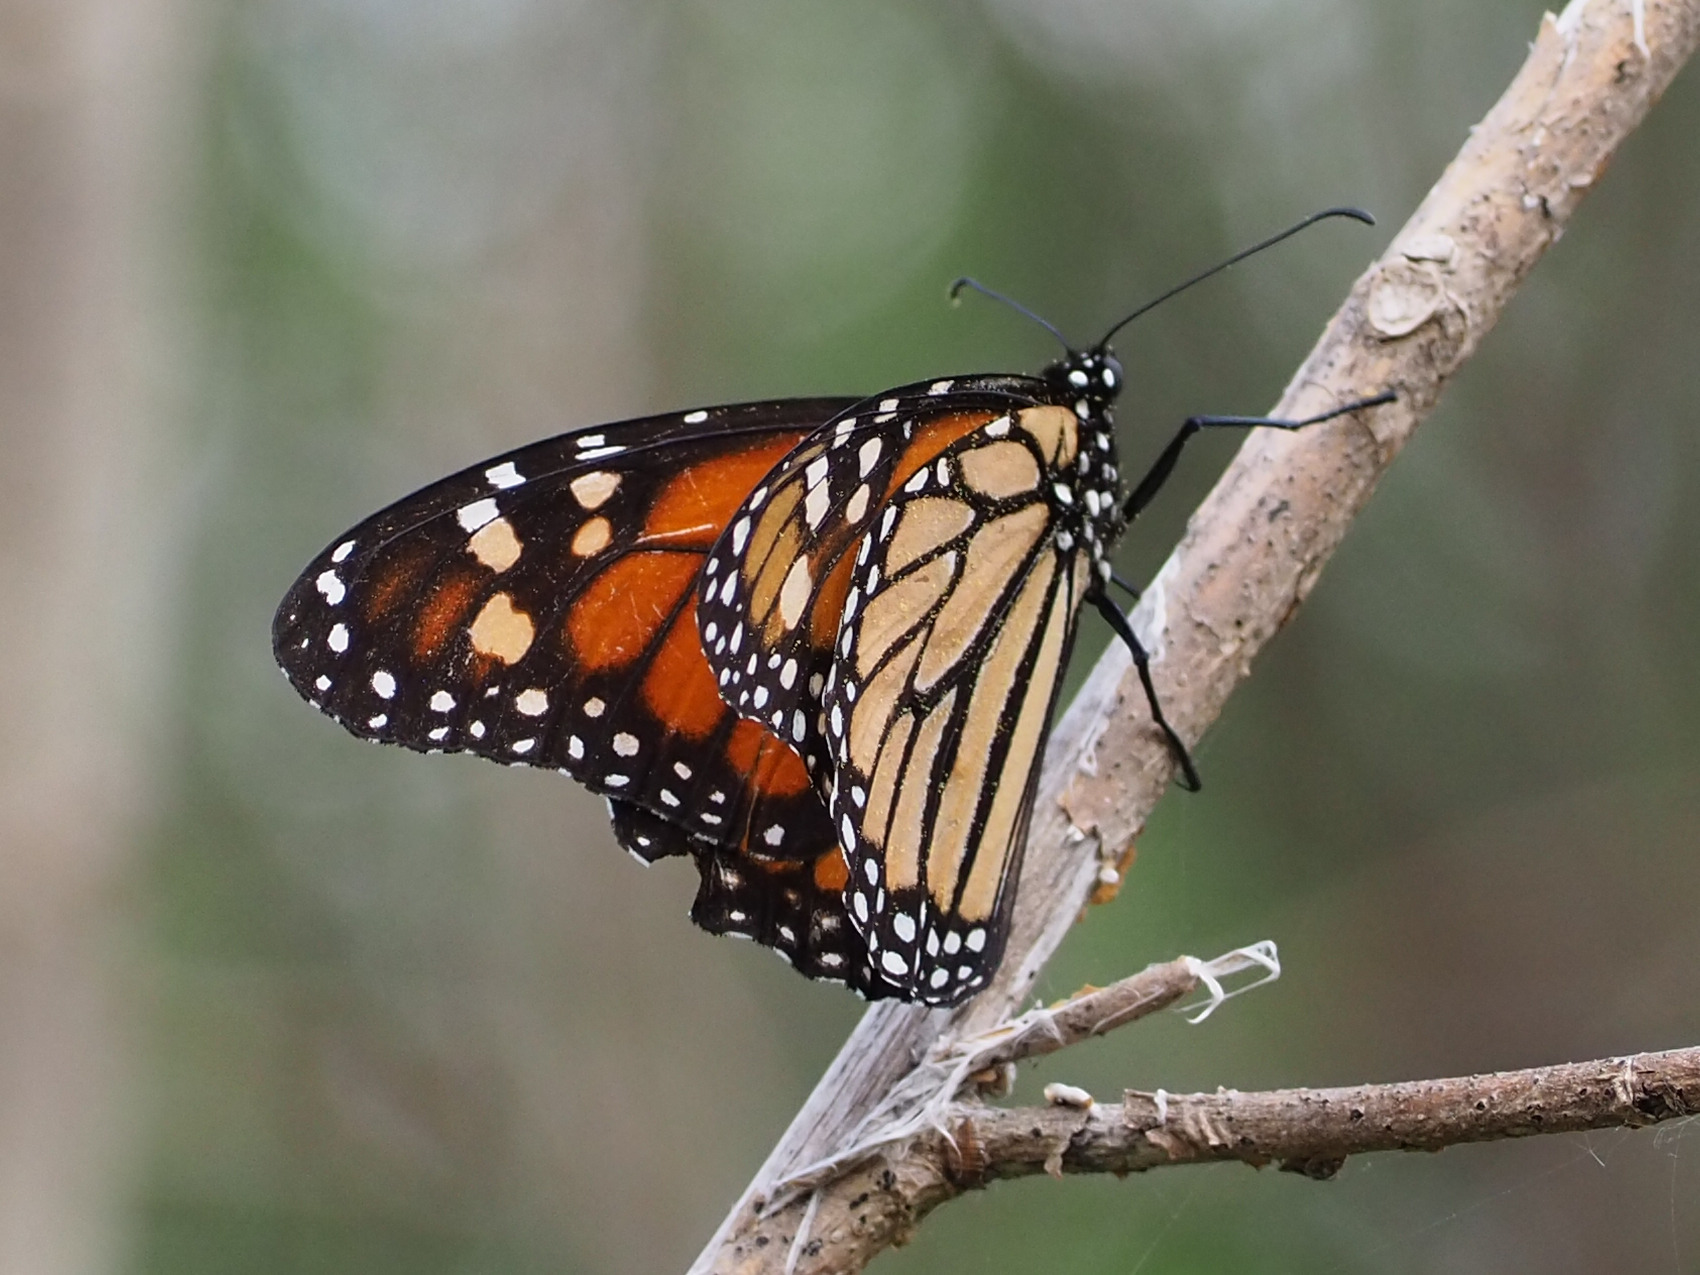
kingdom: Animalia
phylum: Arthropoda
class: Insecta
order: Lepidoptera
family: Nymphalidae
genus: Danaus
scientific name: Danaus plexippus
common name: Monarch
